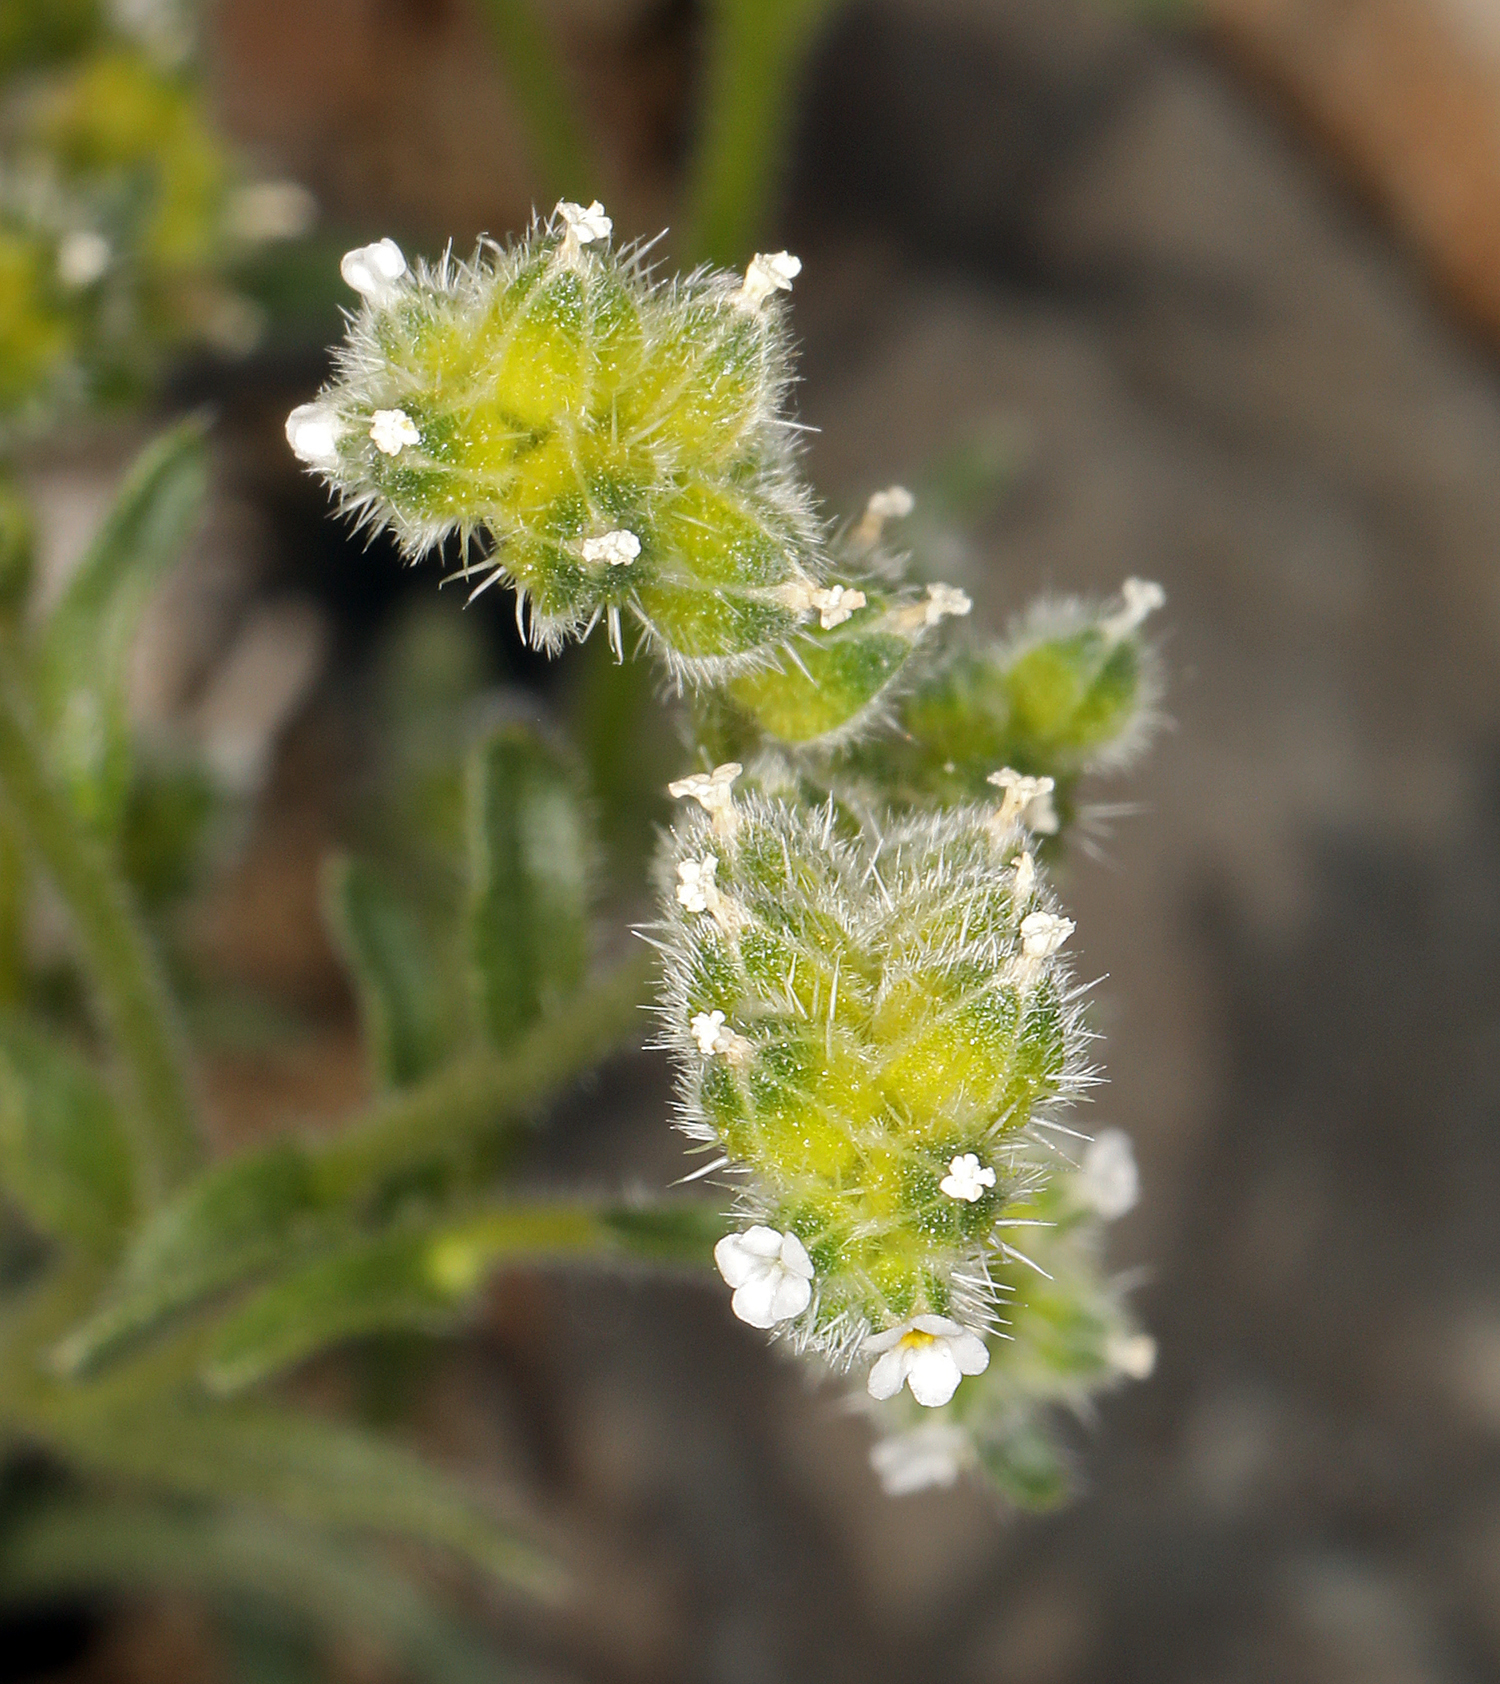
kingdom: Plantae
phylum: Tracheophyta
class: Magnoliopsida
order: Boraginales
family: Boraginaceae
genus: Cryptantha
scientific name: Cryptantha pterocarya
